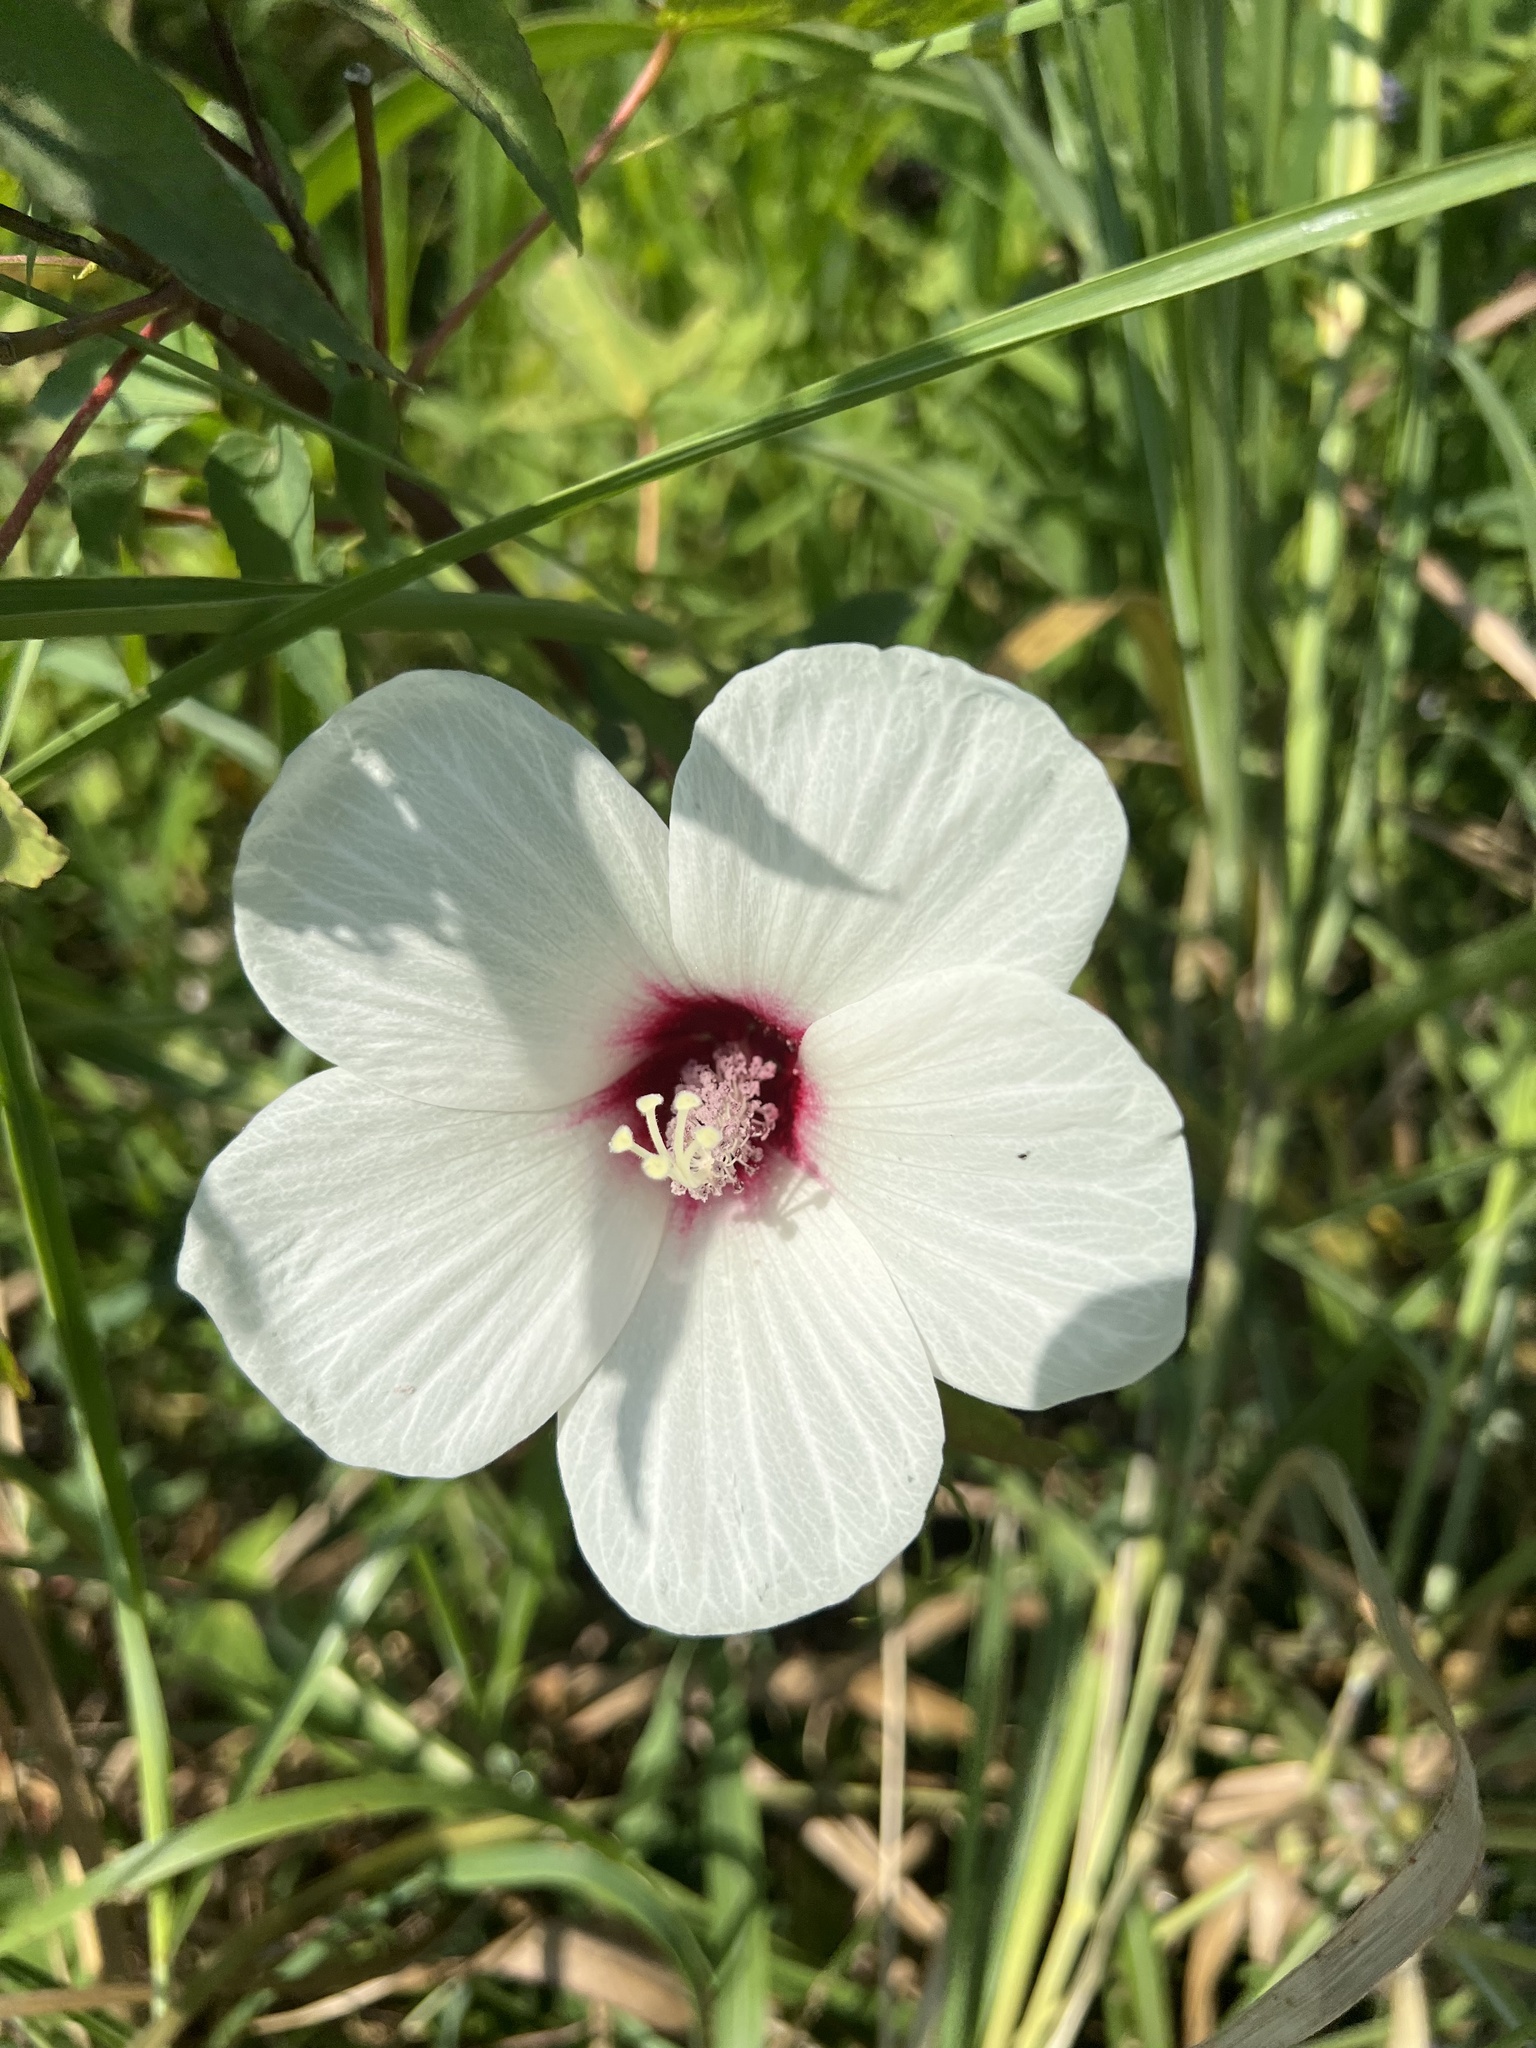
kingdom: Plantae
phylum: Tracheophyta
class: Magnoliopsida
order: Malvales
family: Malvaceae
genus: Hibiscus
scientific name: Hibiscus laevis
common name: Scarlet rose-mallow
